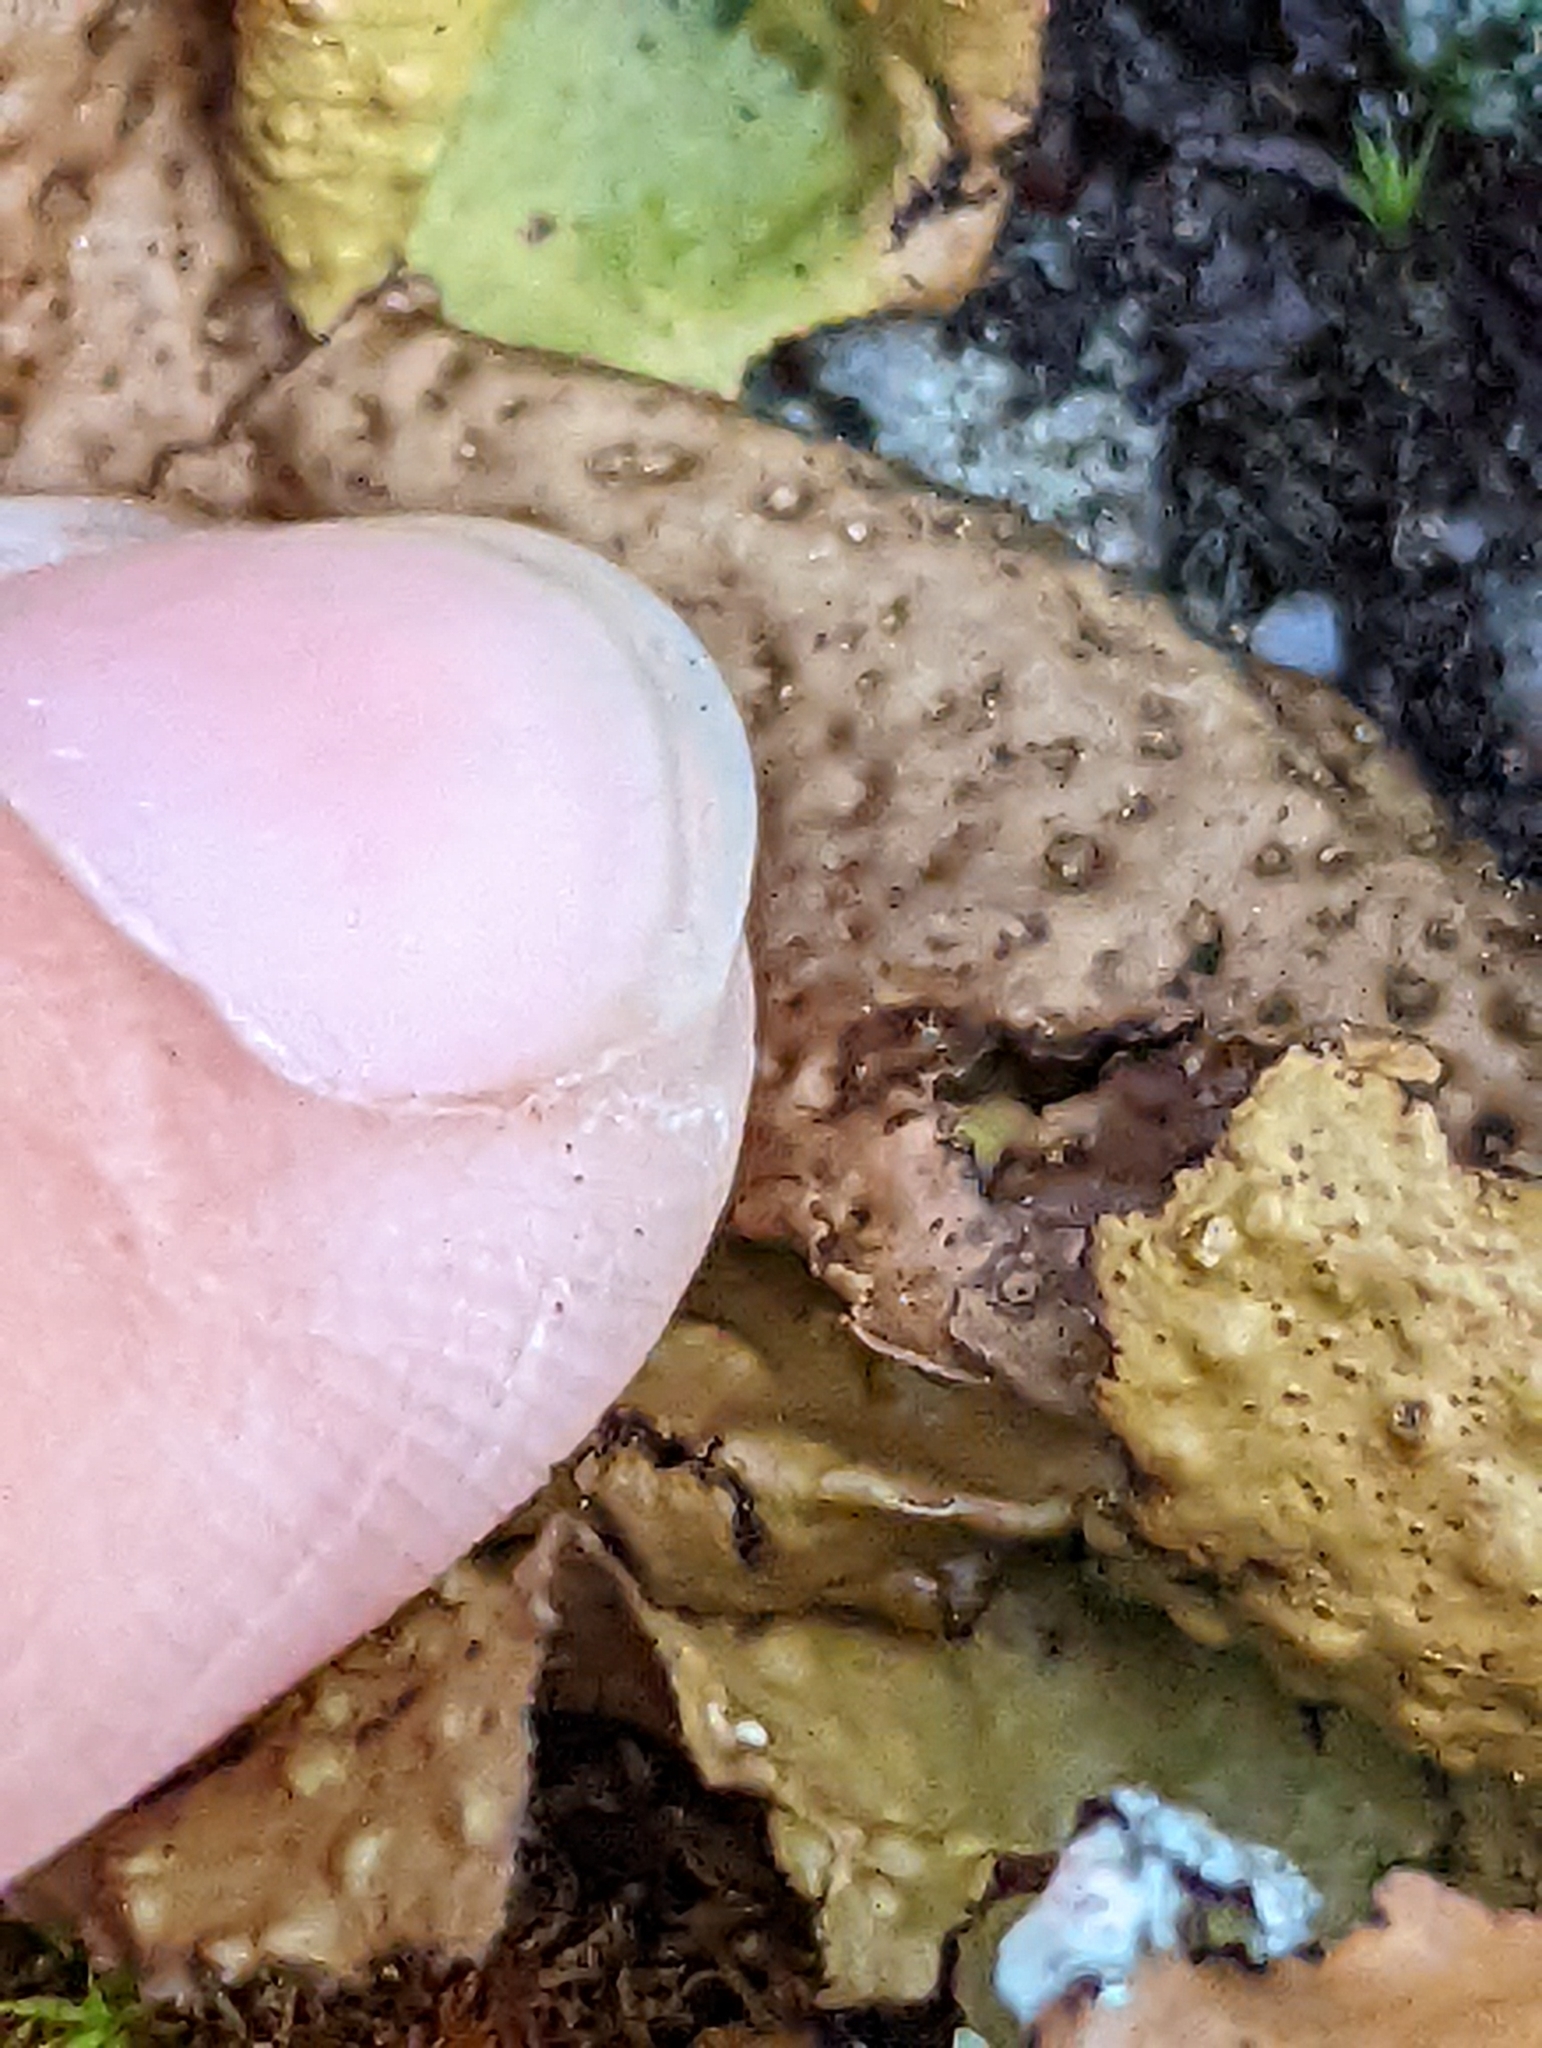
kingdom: Fungi
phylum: Ascomycota
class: Lecanoromycetes
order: Umbilicariales
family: Umbilicariaceae
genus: Lasallia
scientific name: Lasallia papulosa
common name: Common toadskin lichen
